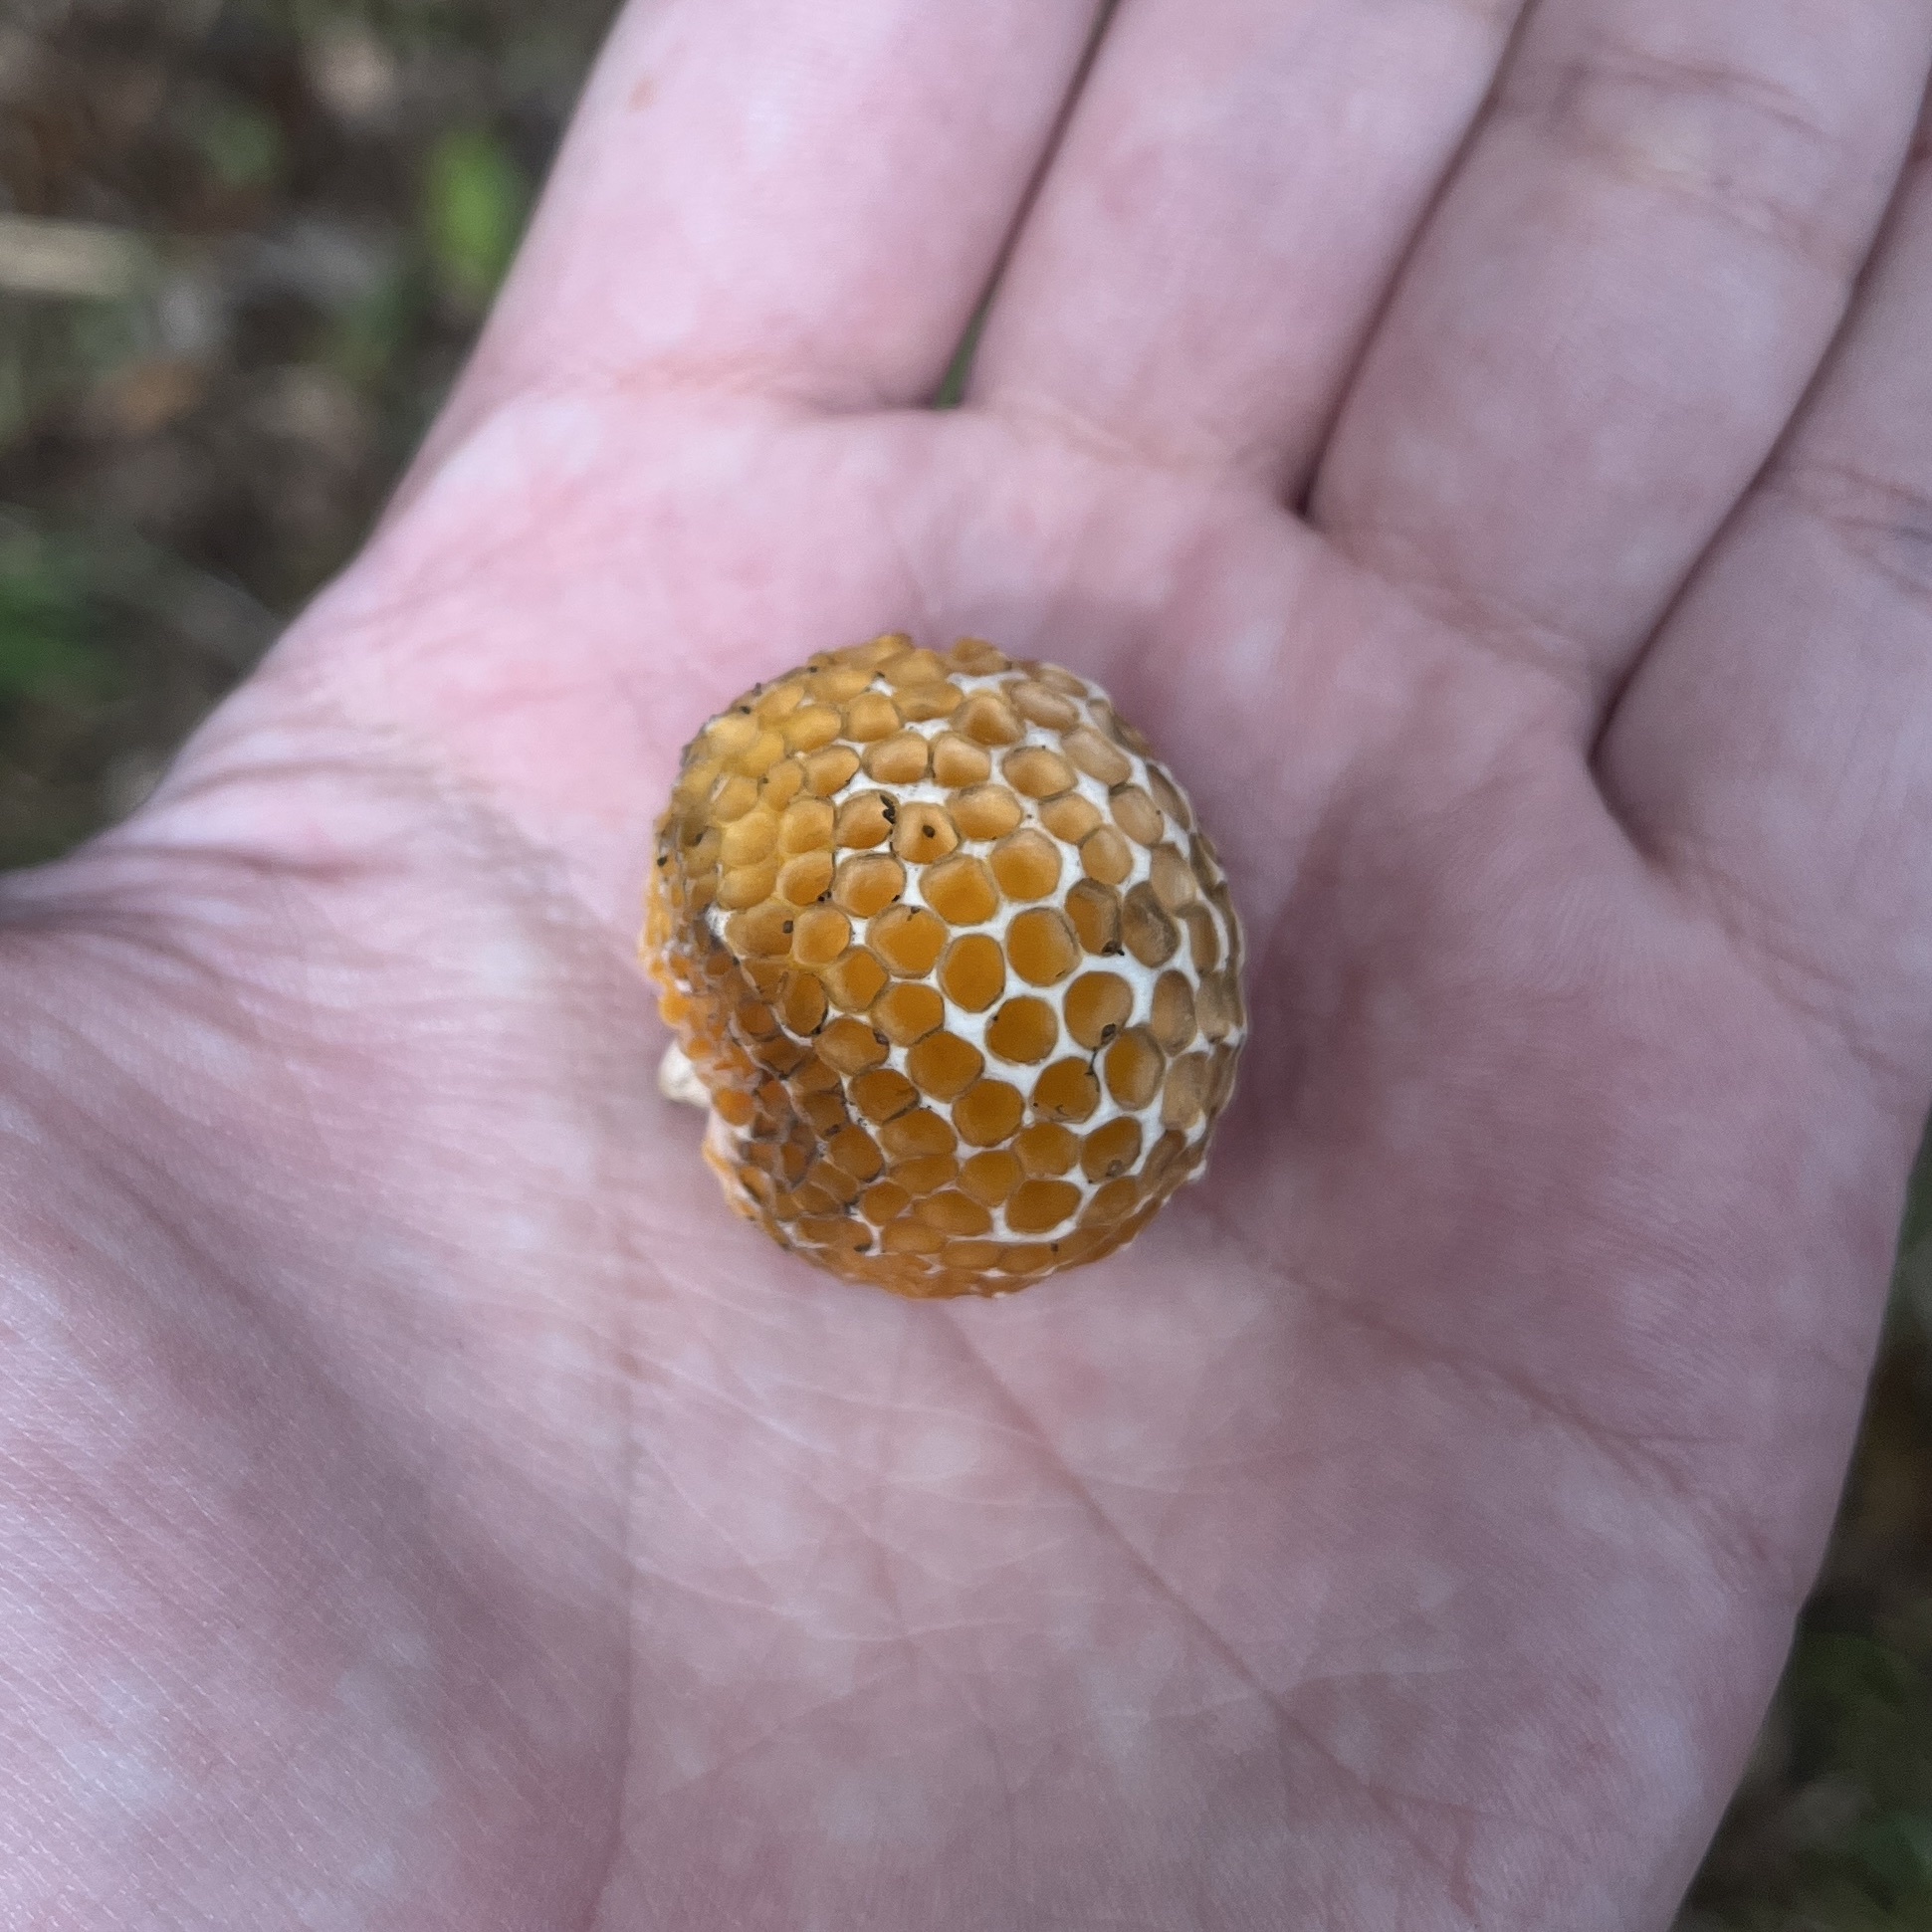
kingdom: Fungi
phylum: Ascomycota
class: Leotiomycetes
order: Cyttariales
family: Cyttariaceae
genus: Cyttaria
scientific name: Cyttaria espinosae
